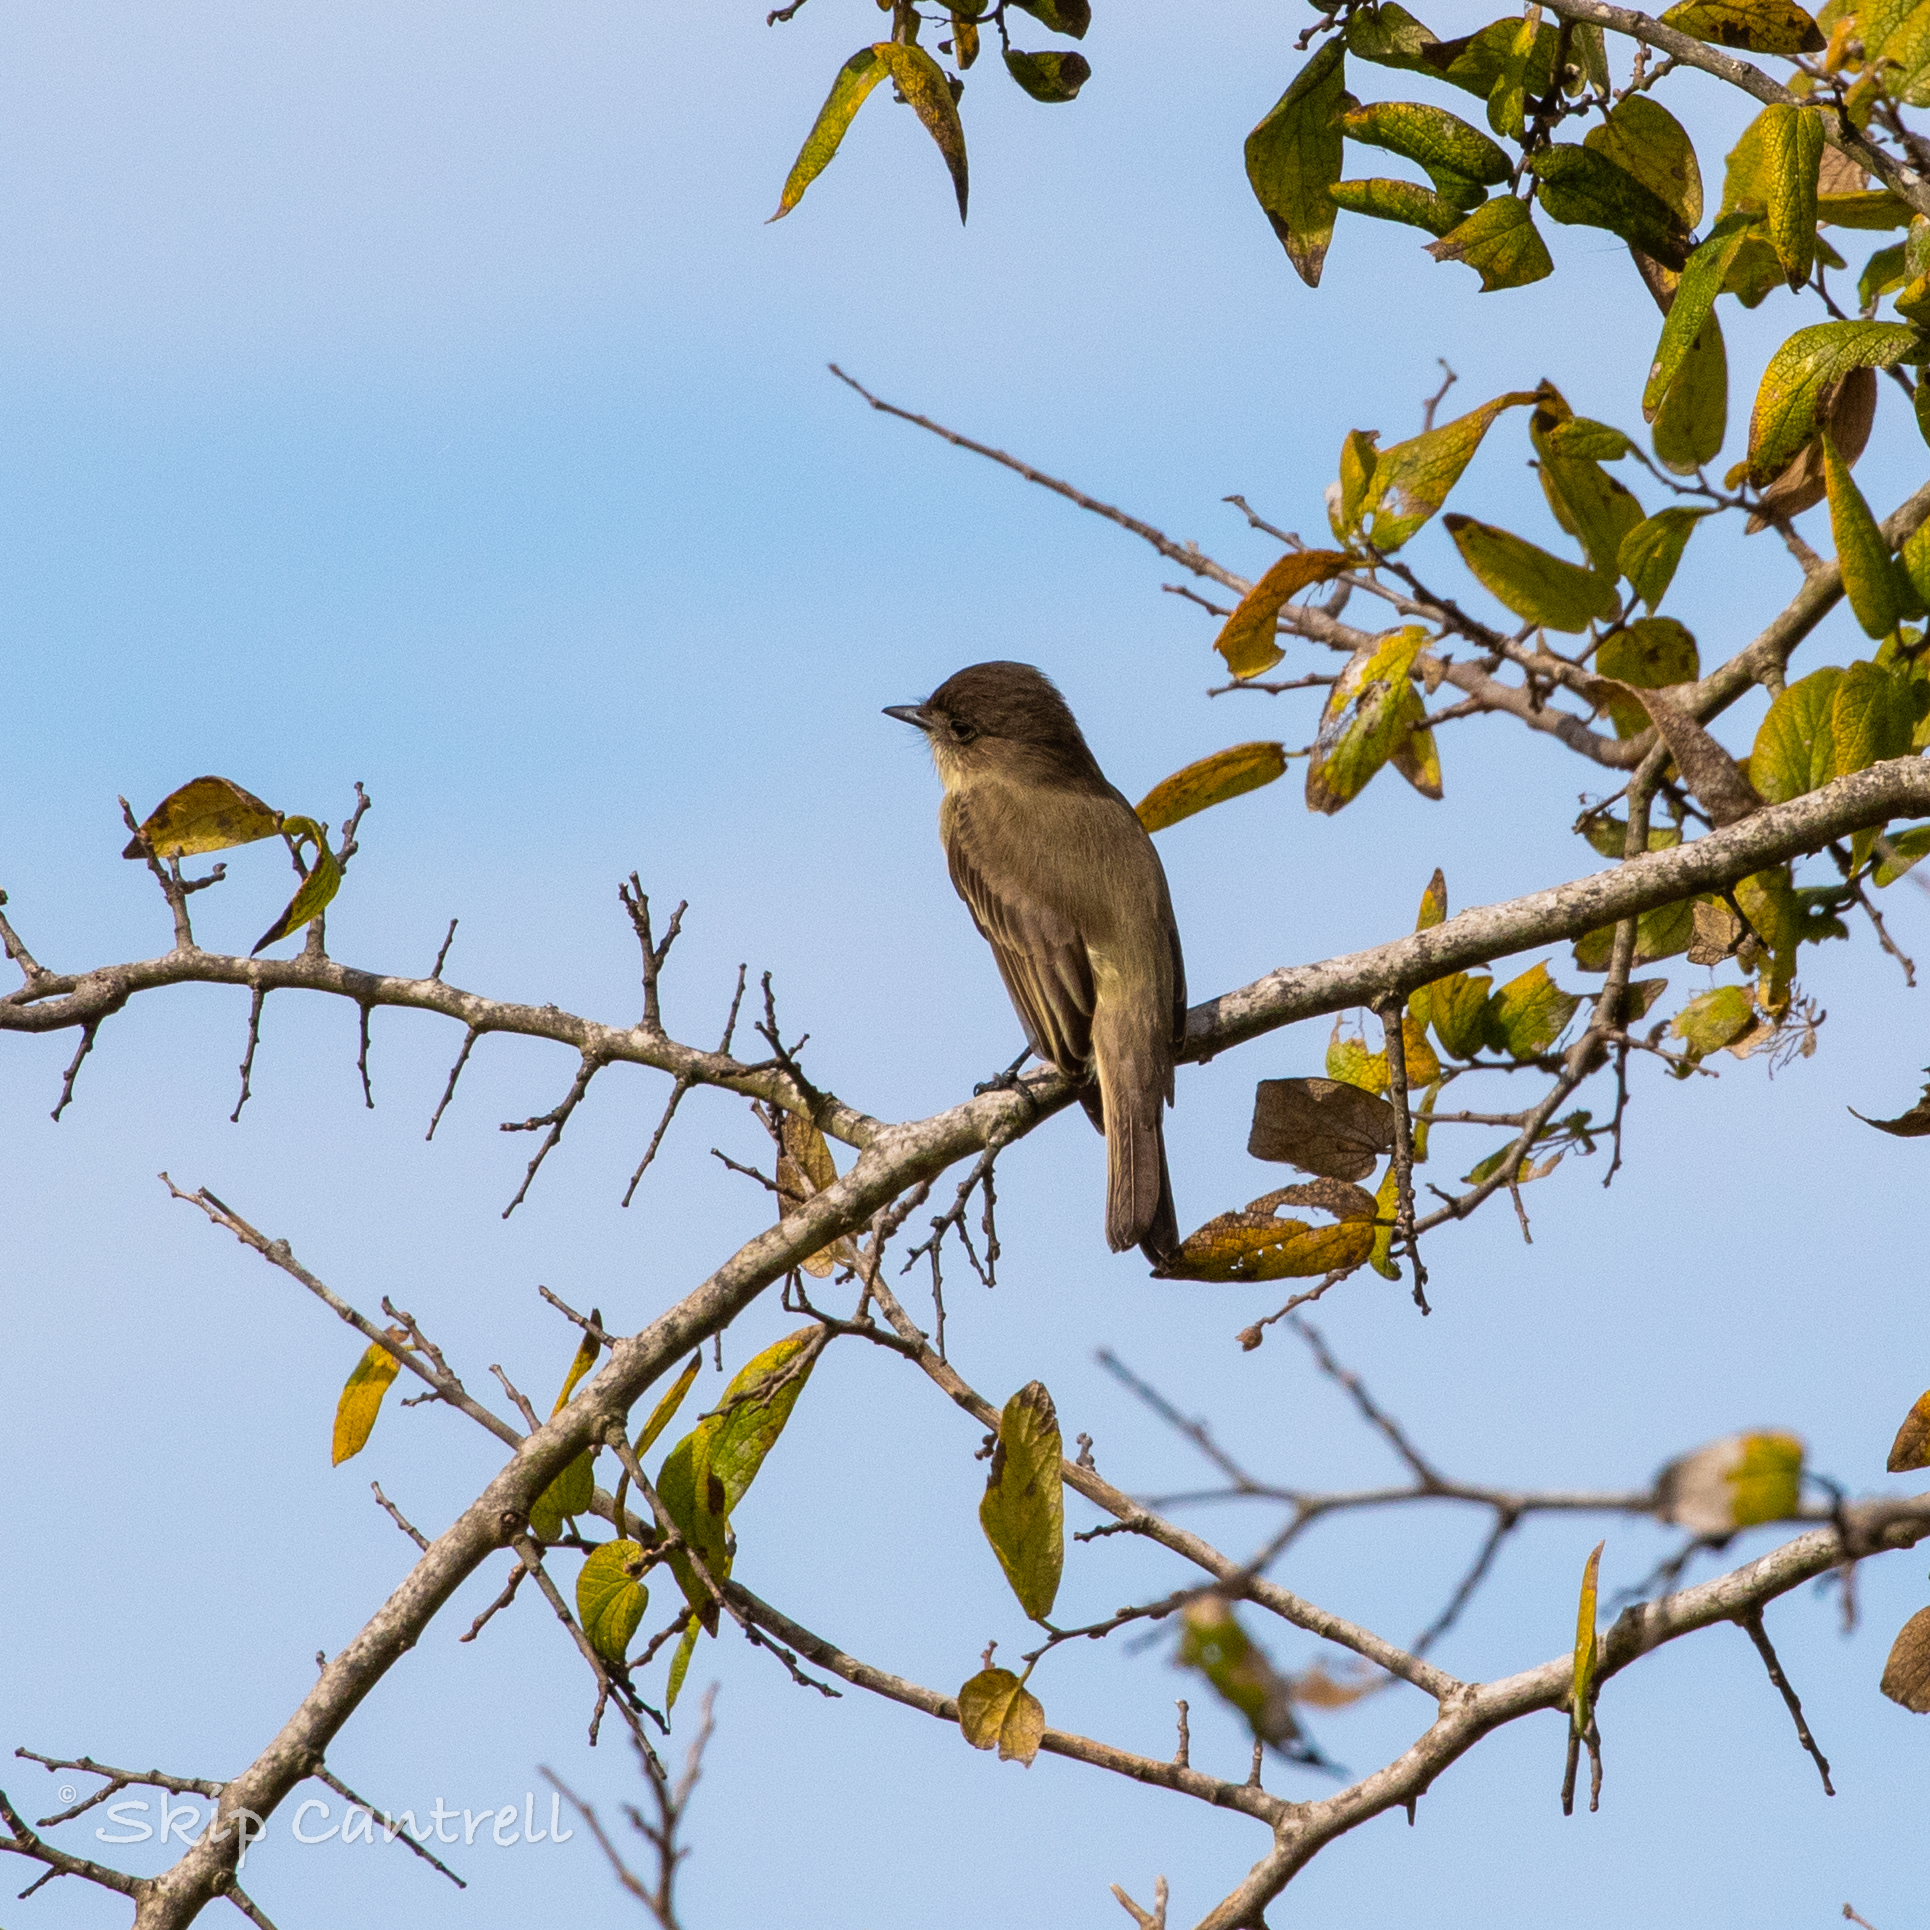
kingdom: Animalia
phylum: Chordata
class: Aves
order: Passeriformes
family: Tyrannidae
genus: Sayornis
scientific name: Sayornis phoebe
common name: Eastern phoebe
